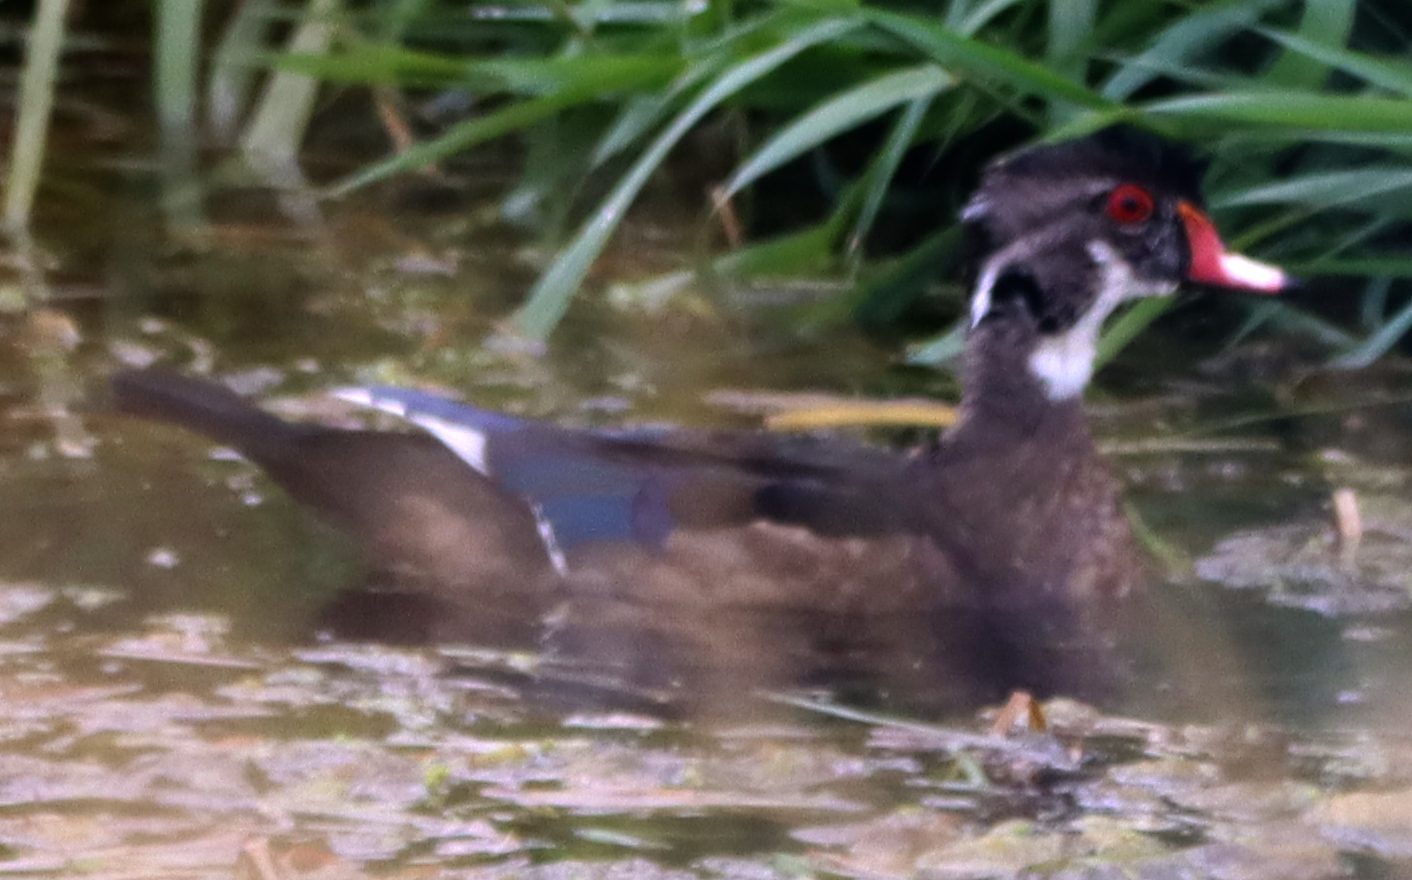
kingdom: Animalia
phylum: Chordata
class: Aves
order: Anseriformes
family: Anatidae
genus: Aix
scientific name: Aix sponsa
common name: Wood duck
